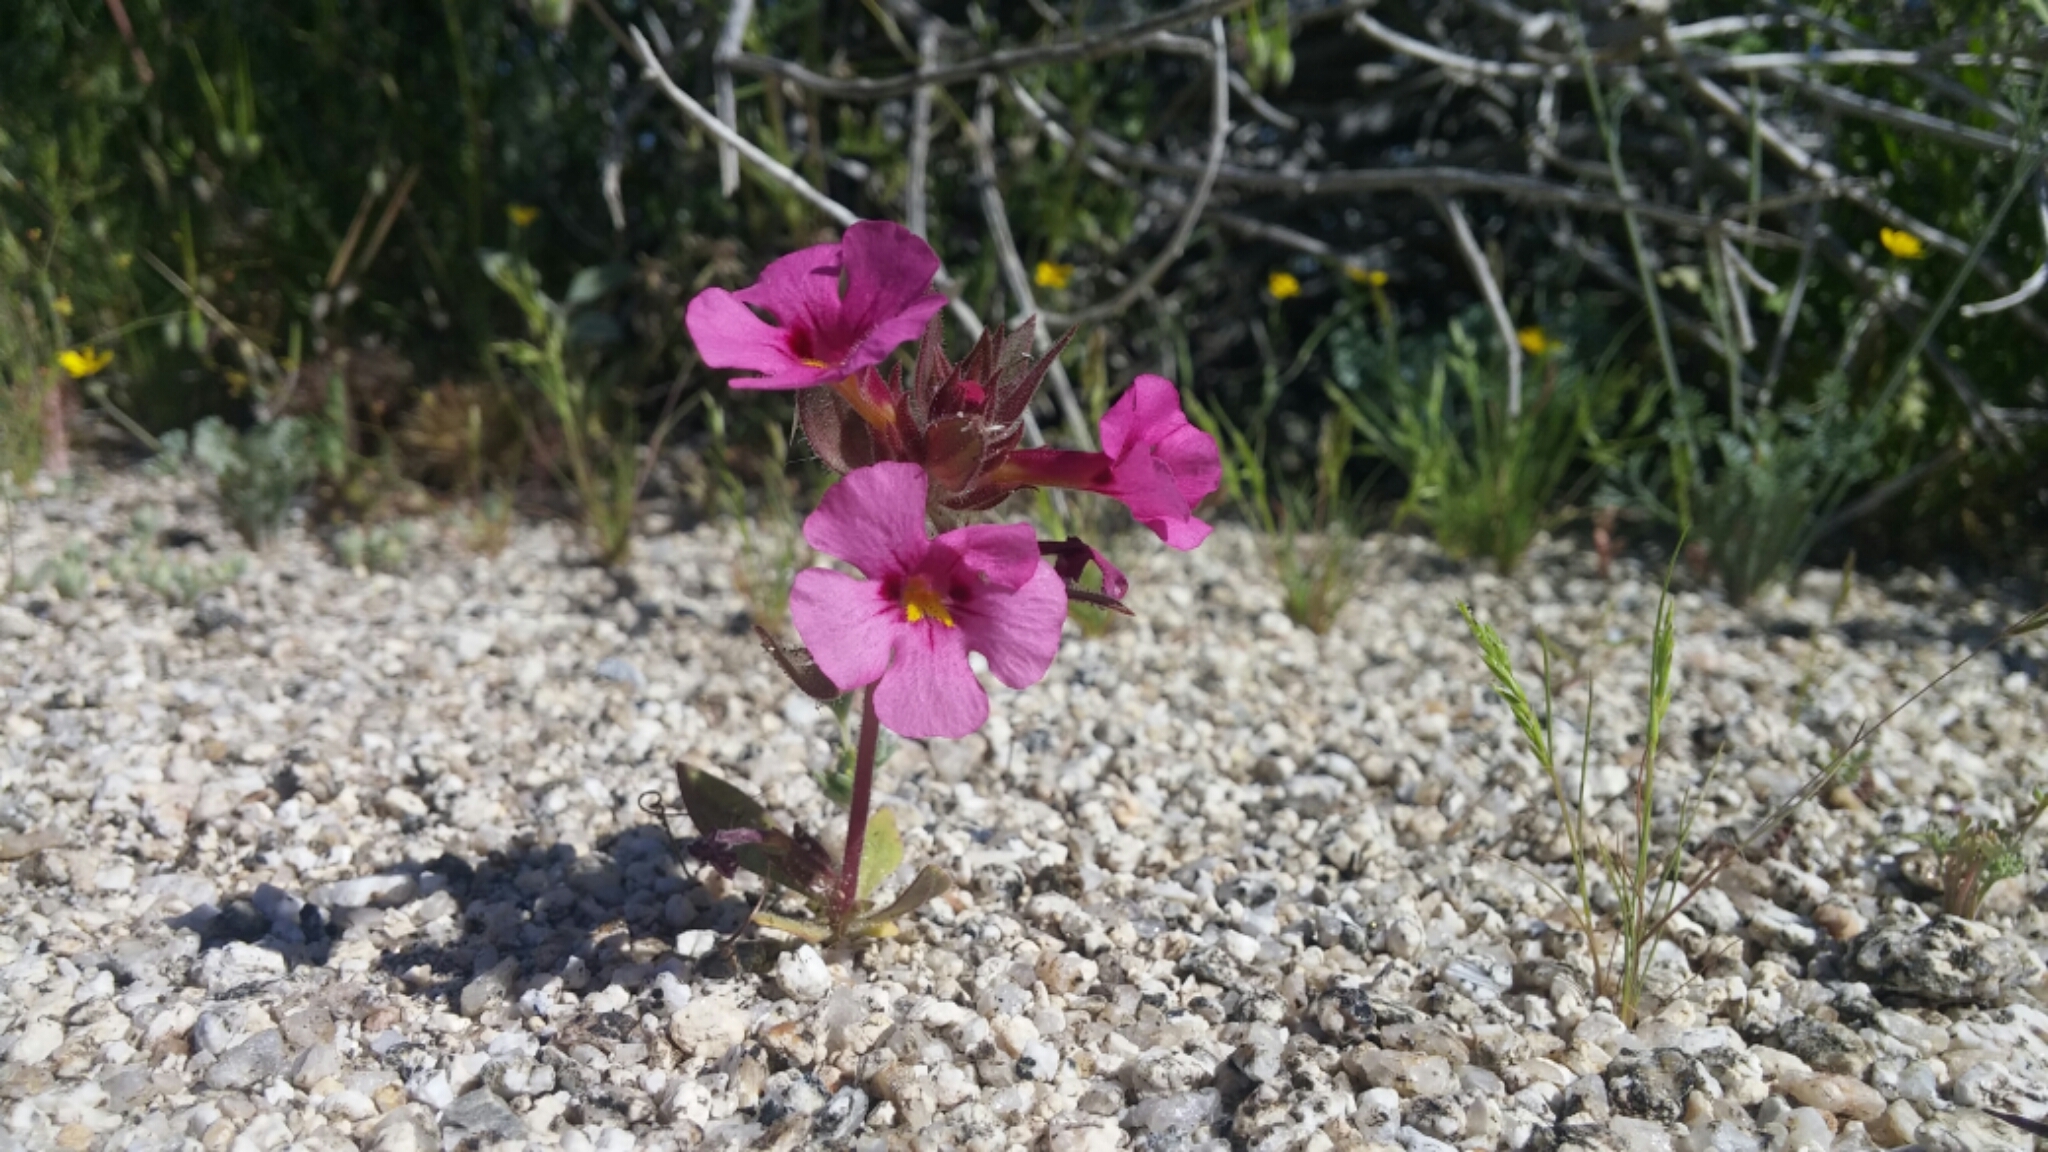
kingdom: Plantae
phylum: Tracheophyta
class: Magnoliopsida
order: Lamiales
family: Phrymaceae
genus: Diplacus
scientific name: Diplacus bigelovii
